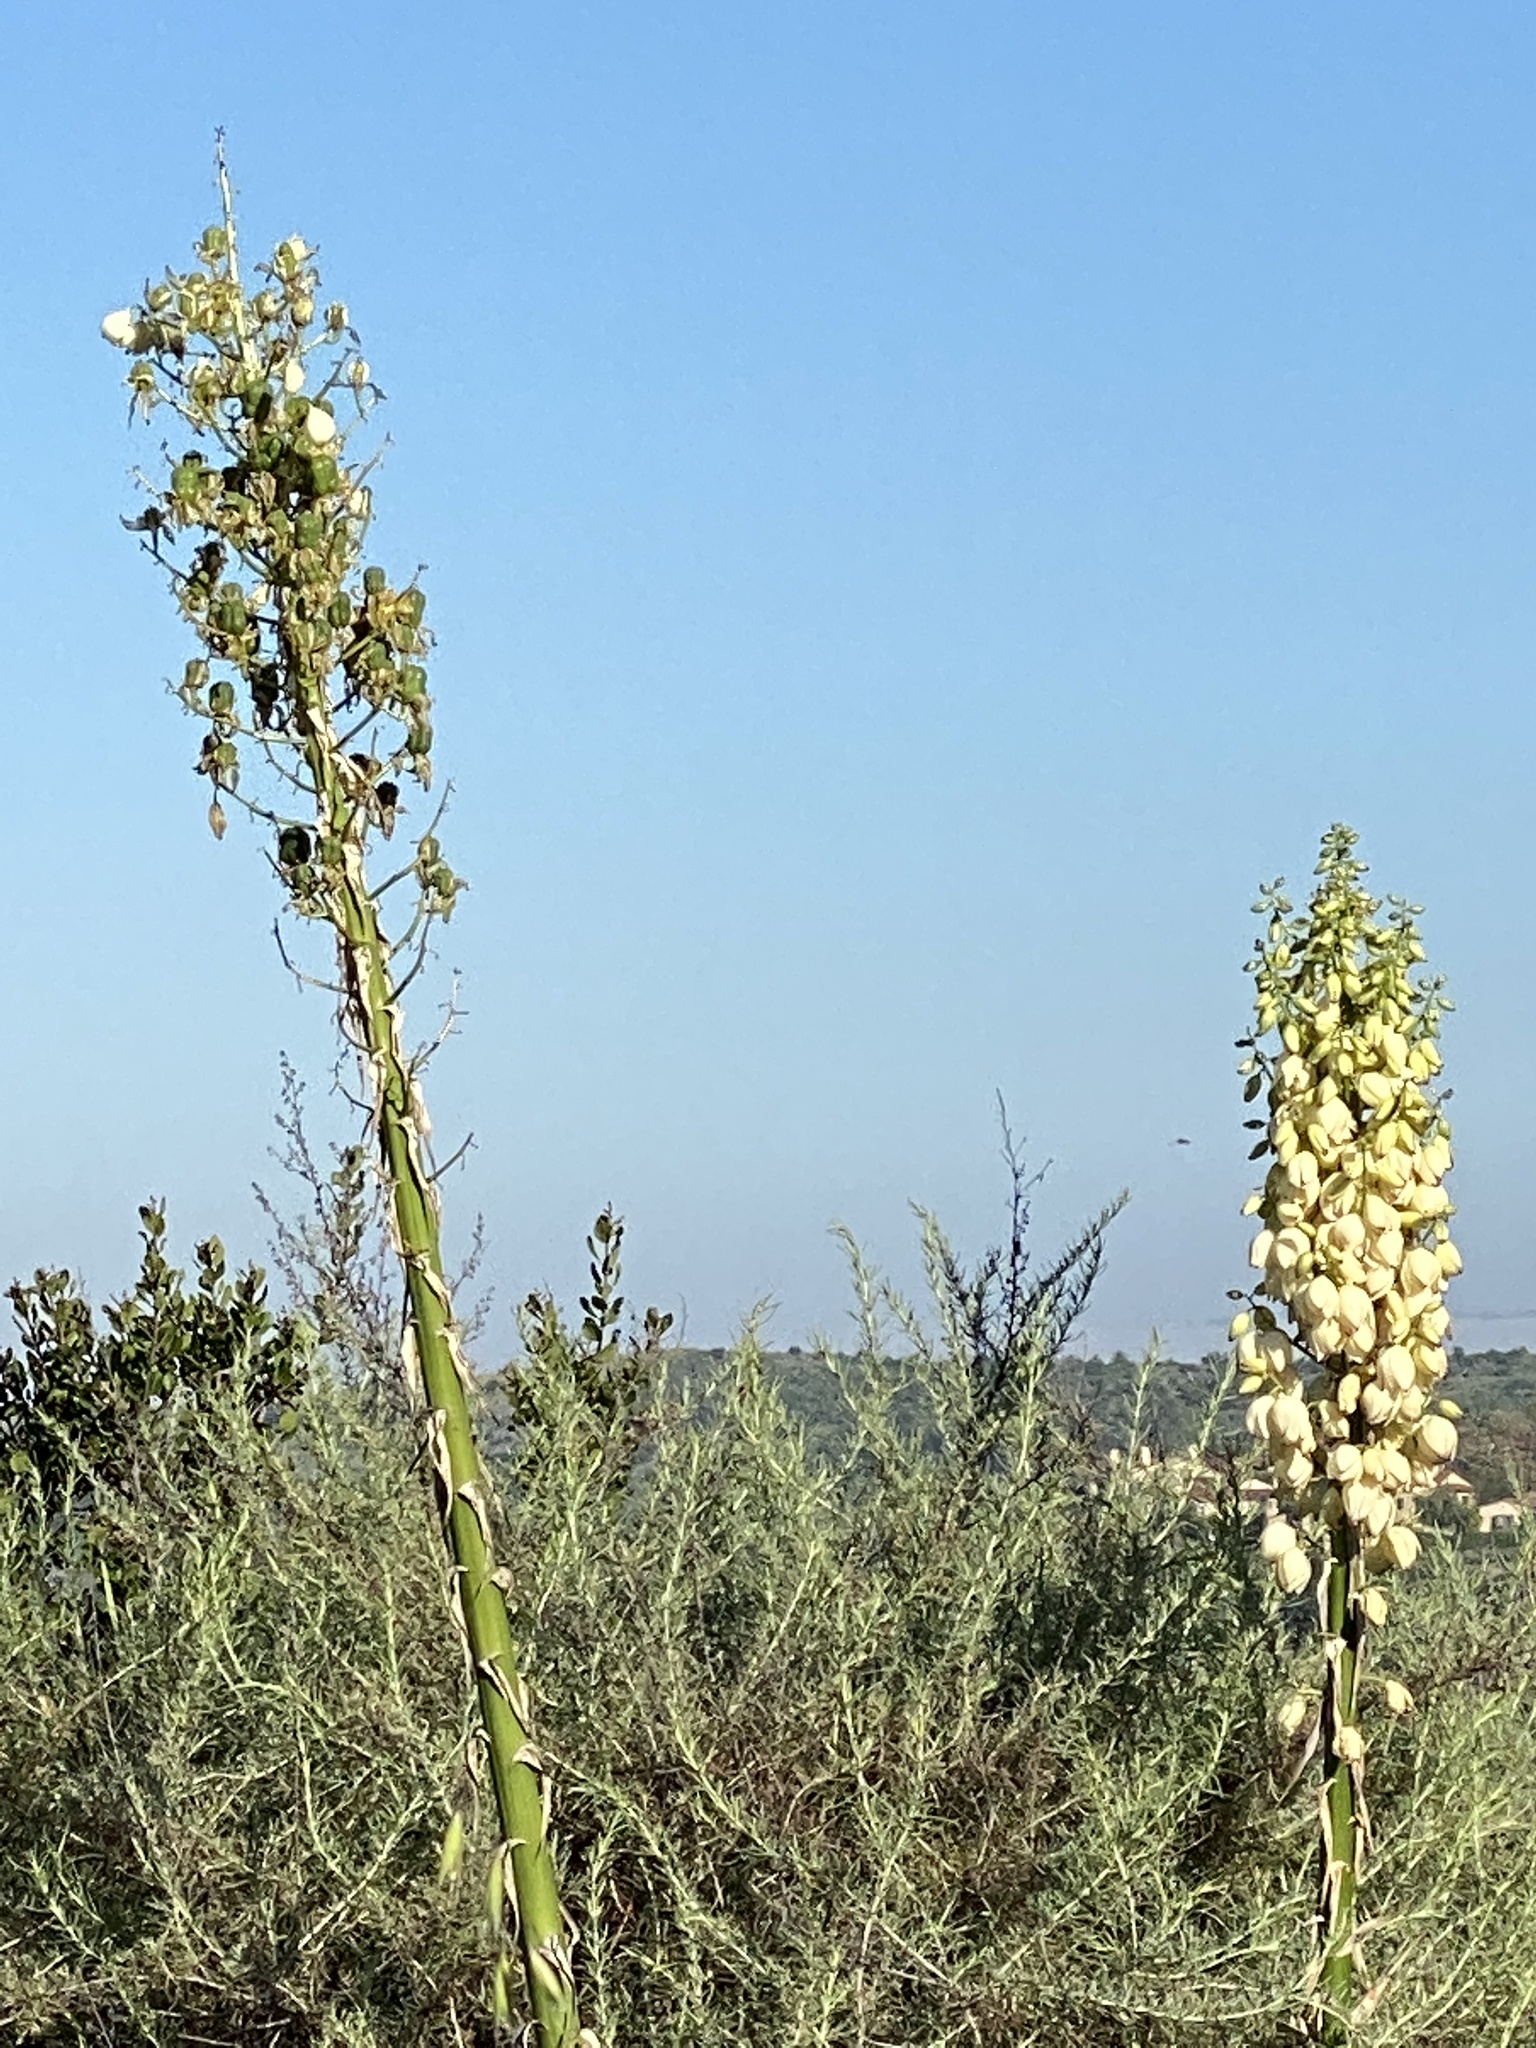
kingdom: Plantae
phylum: Tracheophyta
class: Liliopsida
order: Asparagales
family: Asparagaceae
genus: Hesperoyucca
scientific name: Hesperoyucca whipplei
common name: Our lord's-candle
